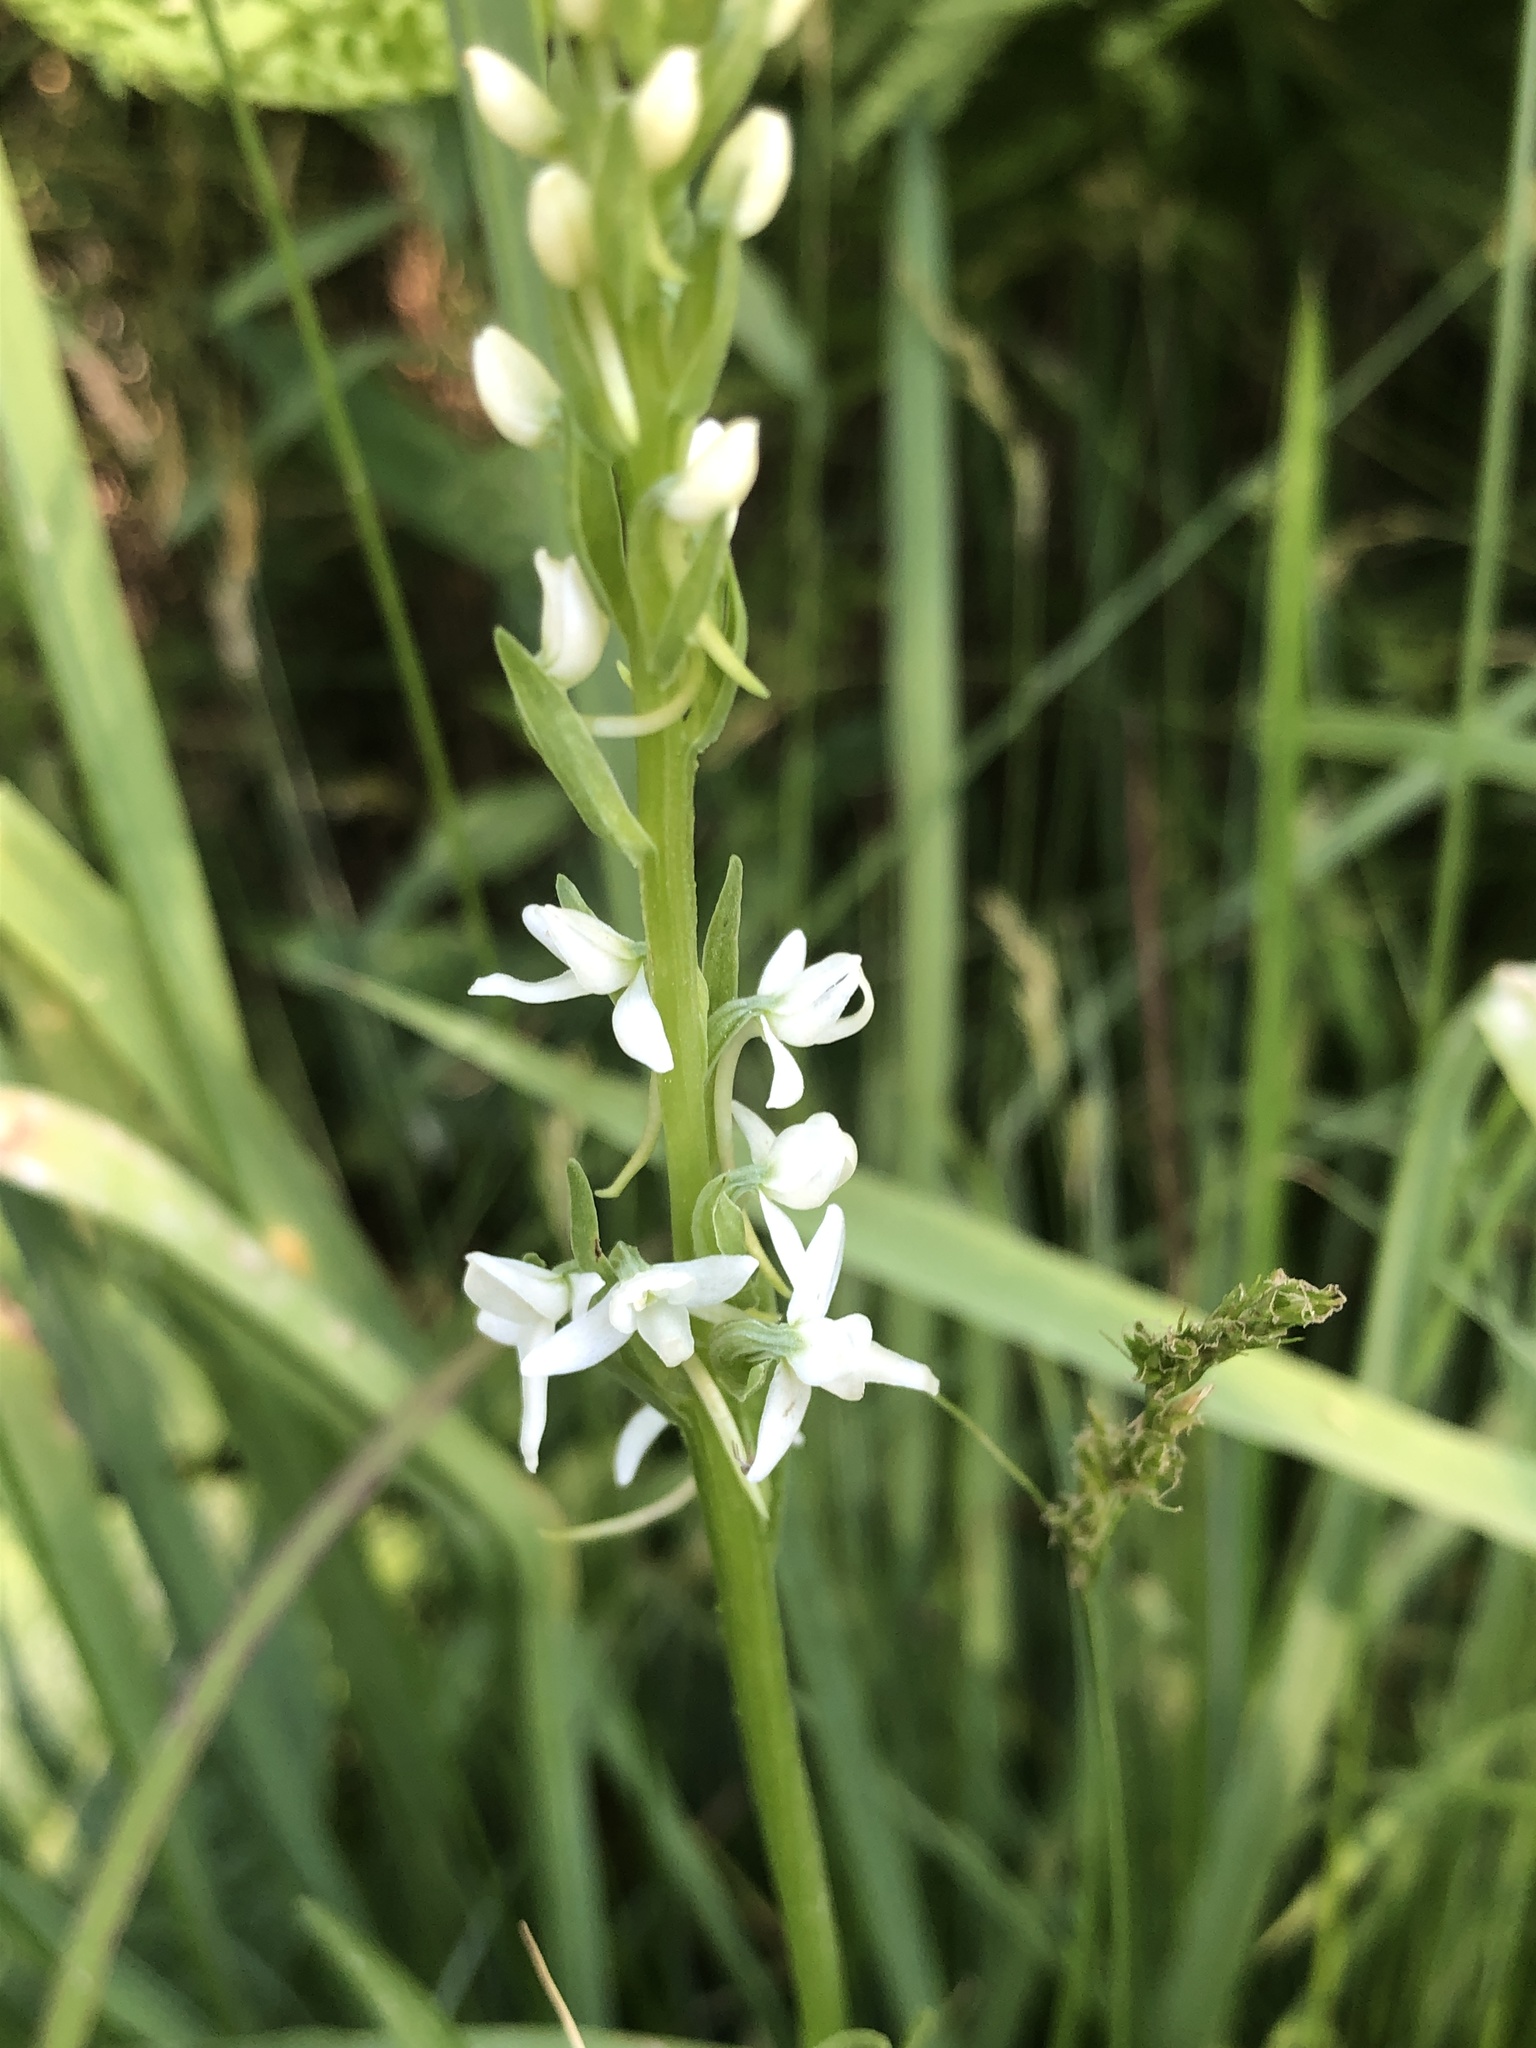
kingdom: Plantae
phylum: Tracheophyta
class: Liliopsida
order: Asparagales
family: Orchidaceae
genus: Platanthera
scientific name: Platanthera dilatata
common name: Bog candles
